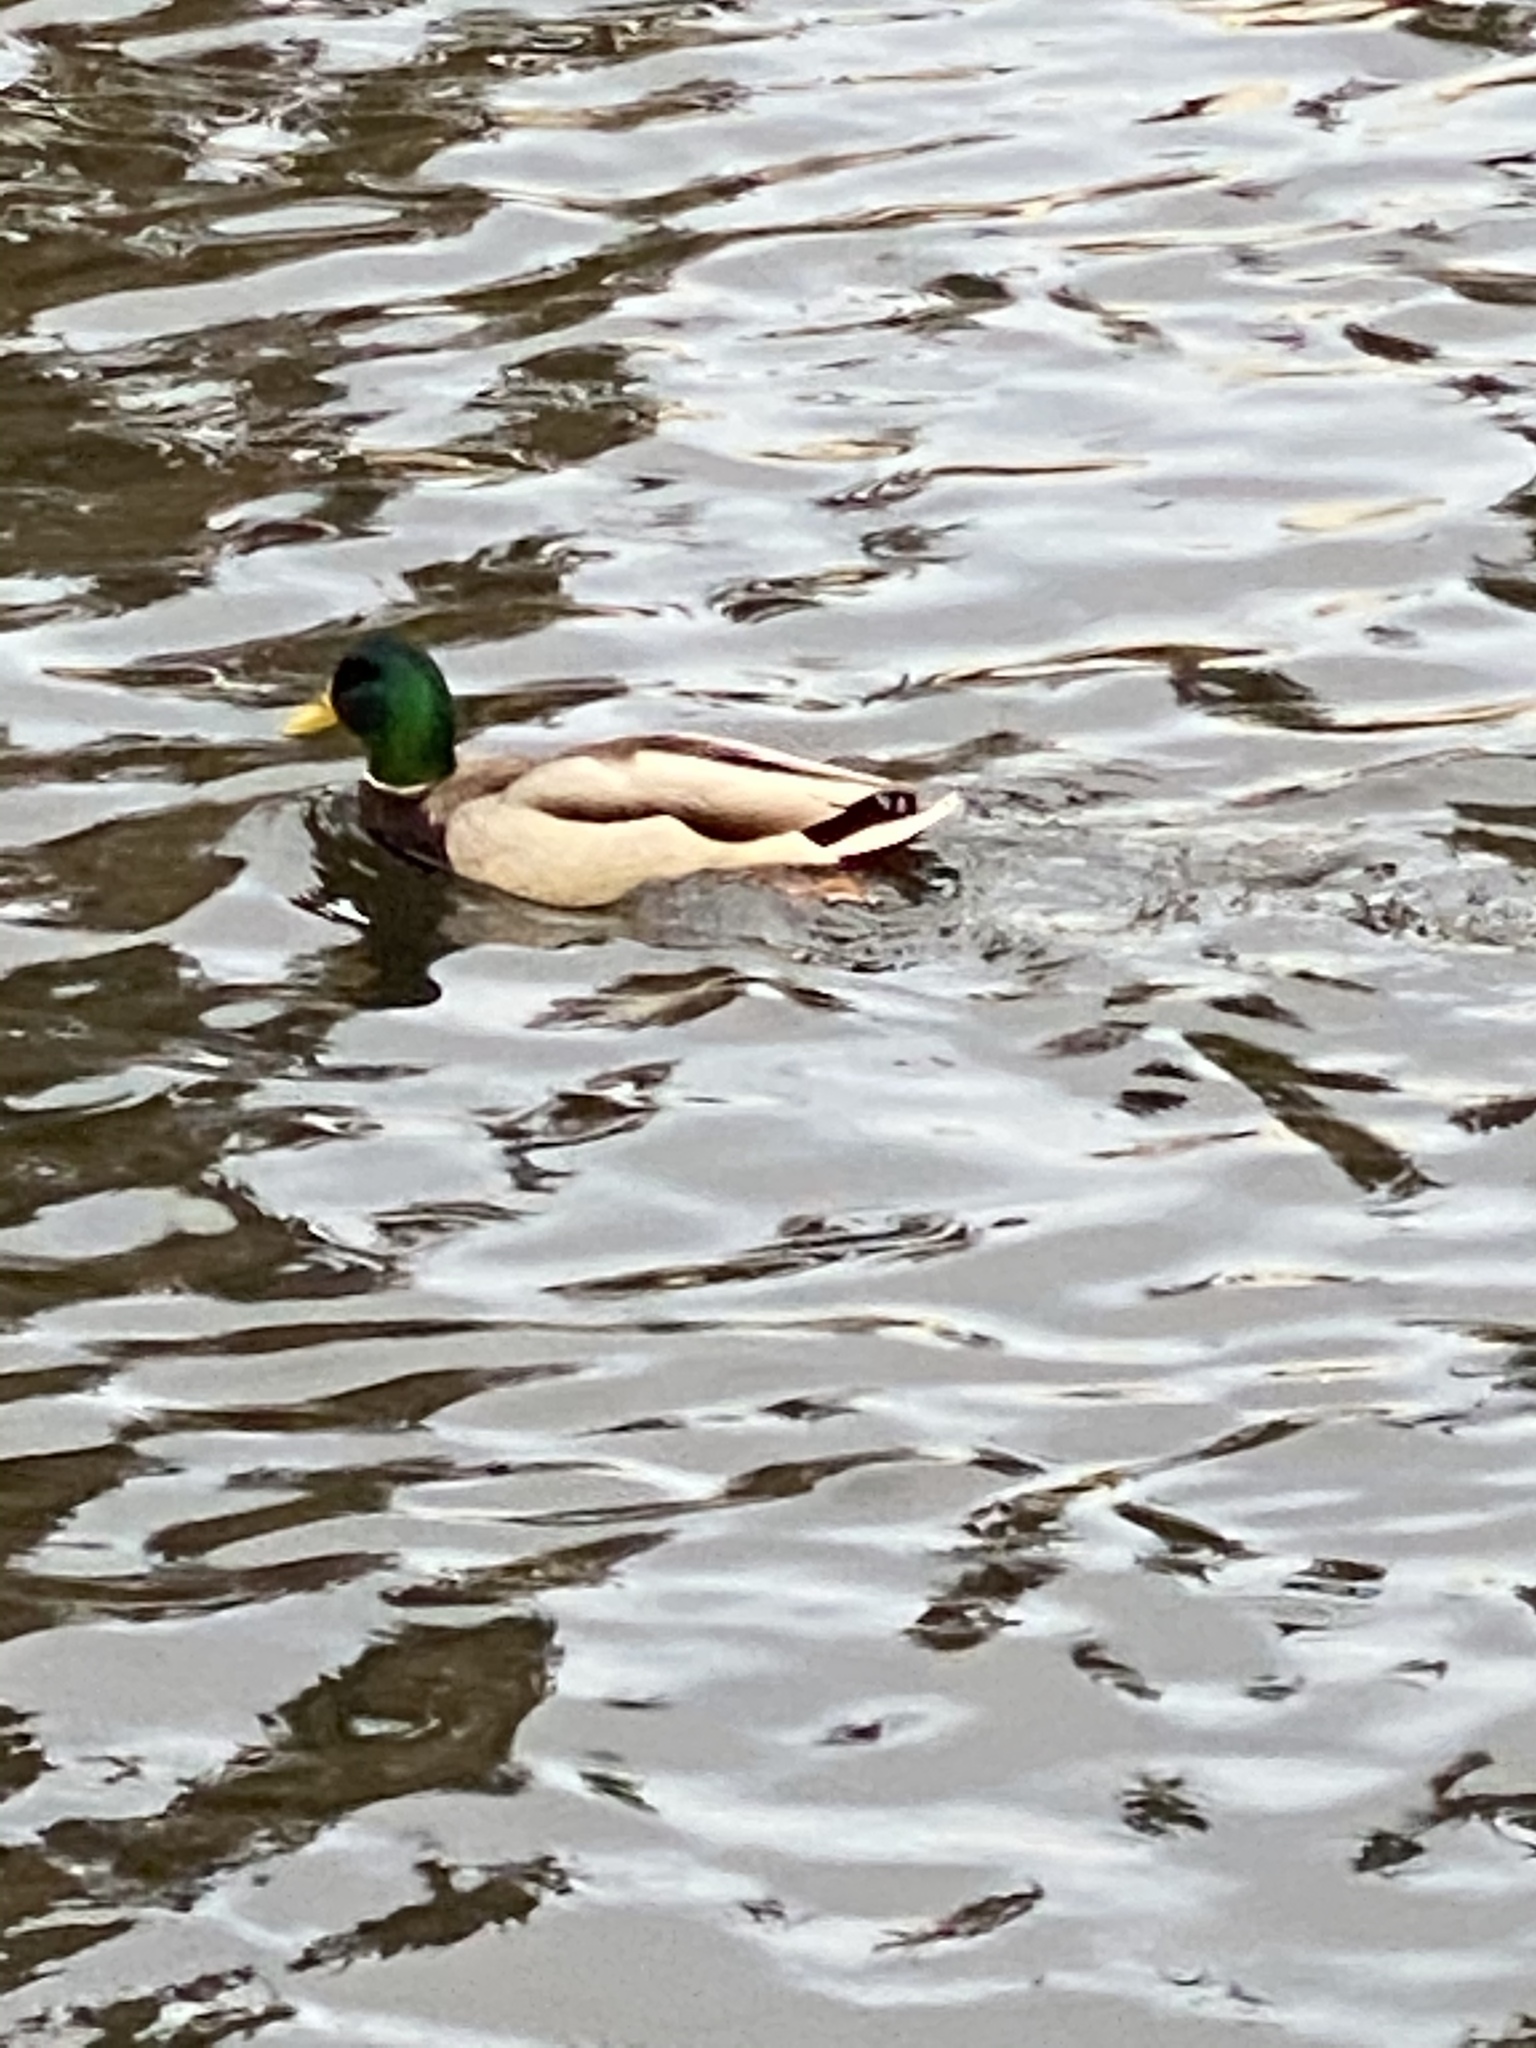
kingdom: Animalia
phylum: Chordata
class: Aves
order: Anseriformes
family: Anatidae
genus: Anas
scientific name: Anas platyrhynchos
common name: Mallard
